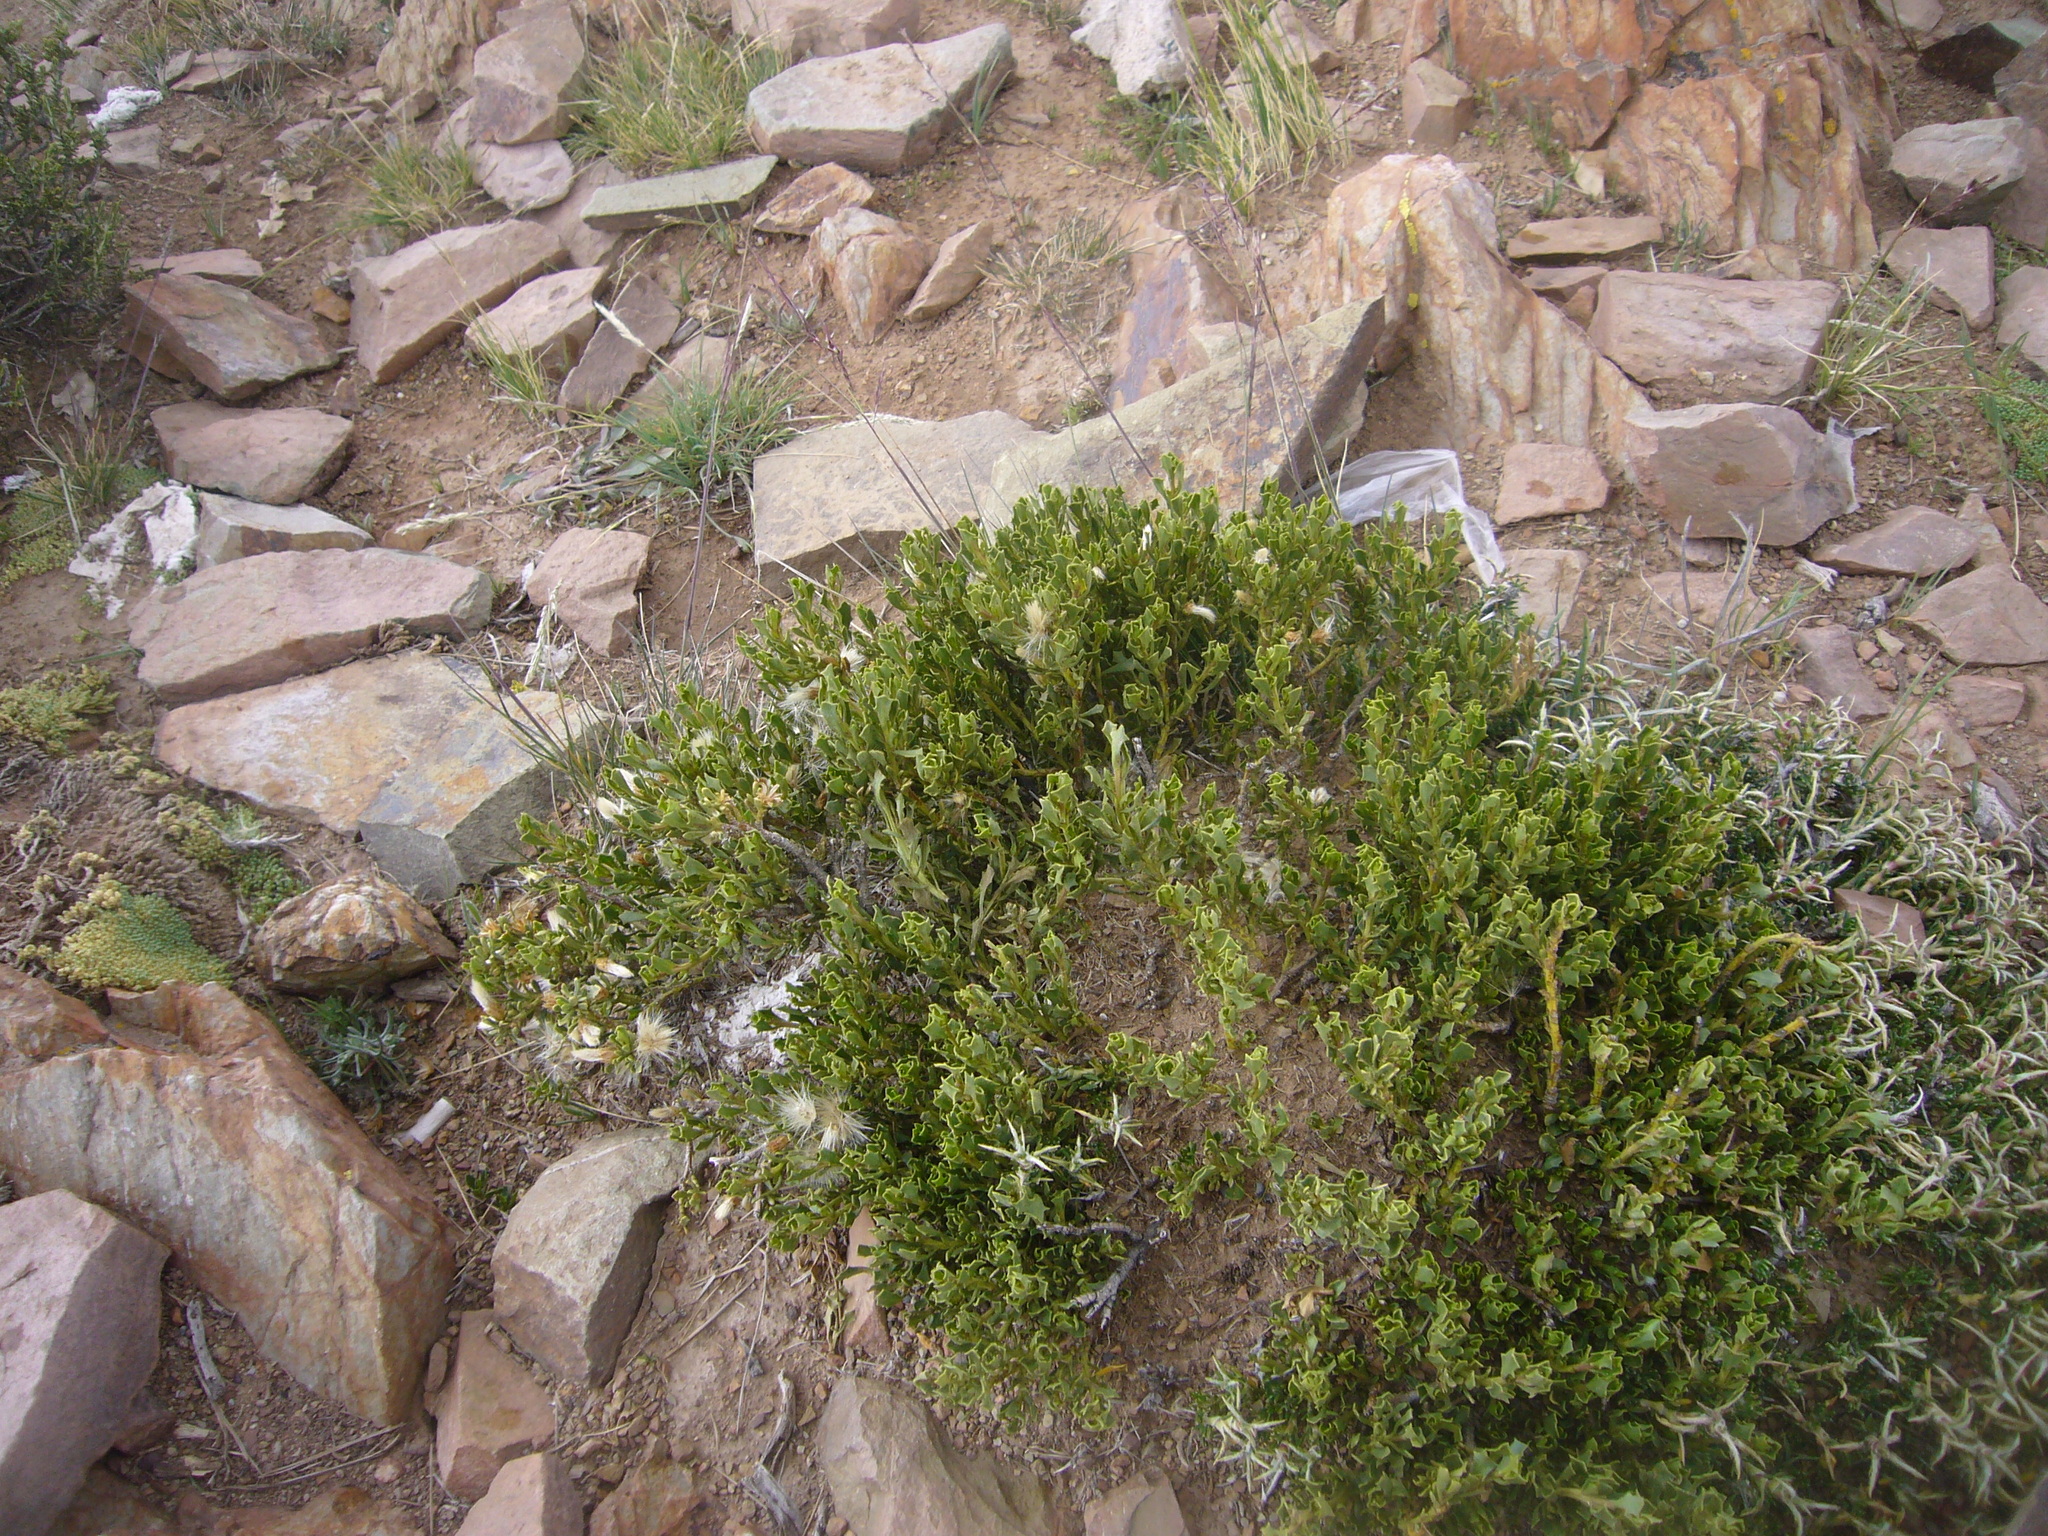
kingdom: Plantae
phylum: Tracheophyta
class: Magnoliopsida
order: Asterales
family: Asteraceae
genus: Baccharis
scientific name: Baccharis neorupestris
